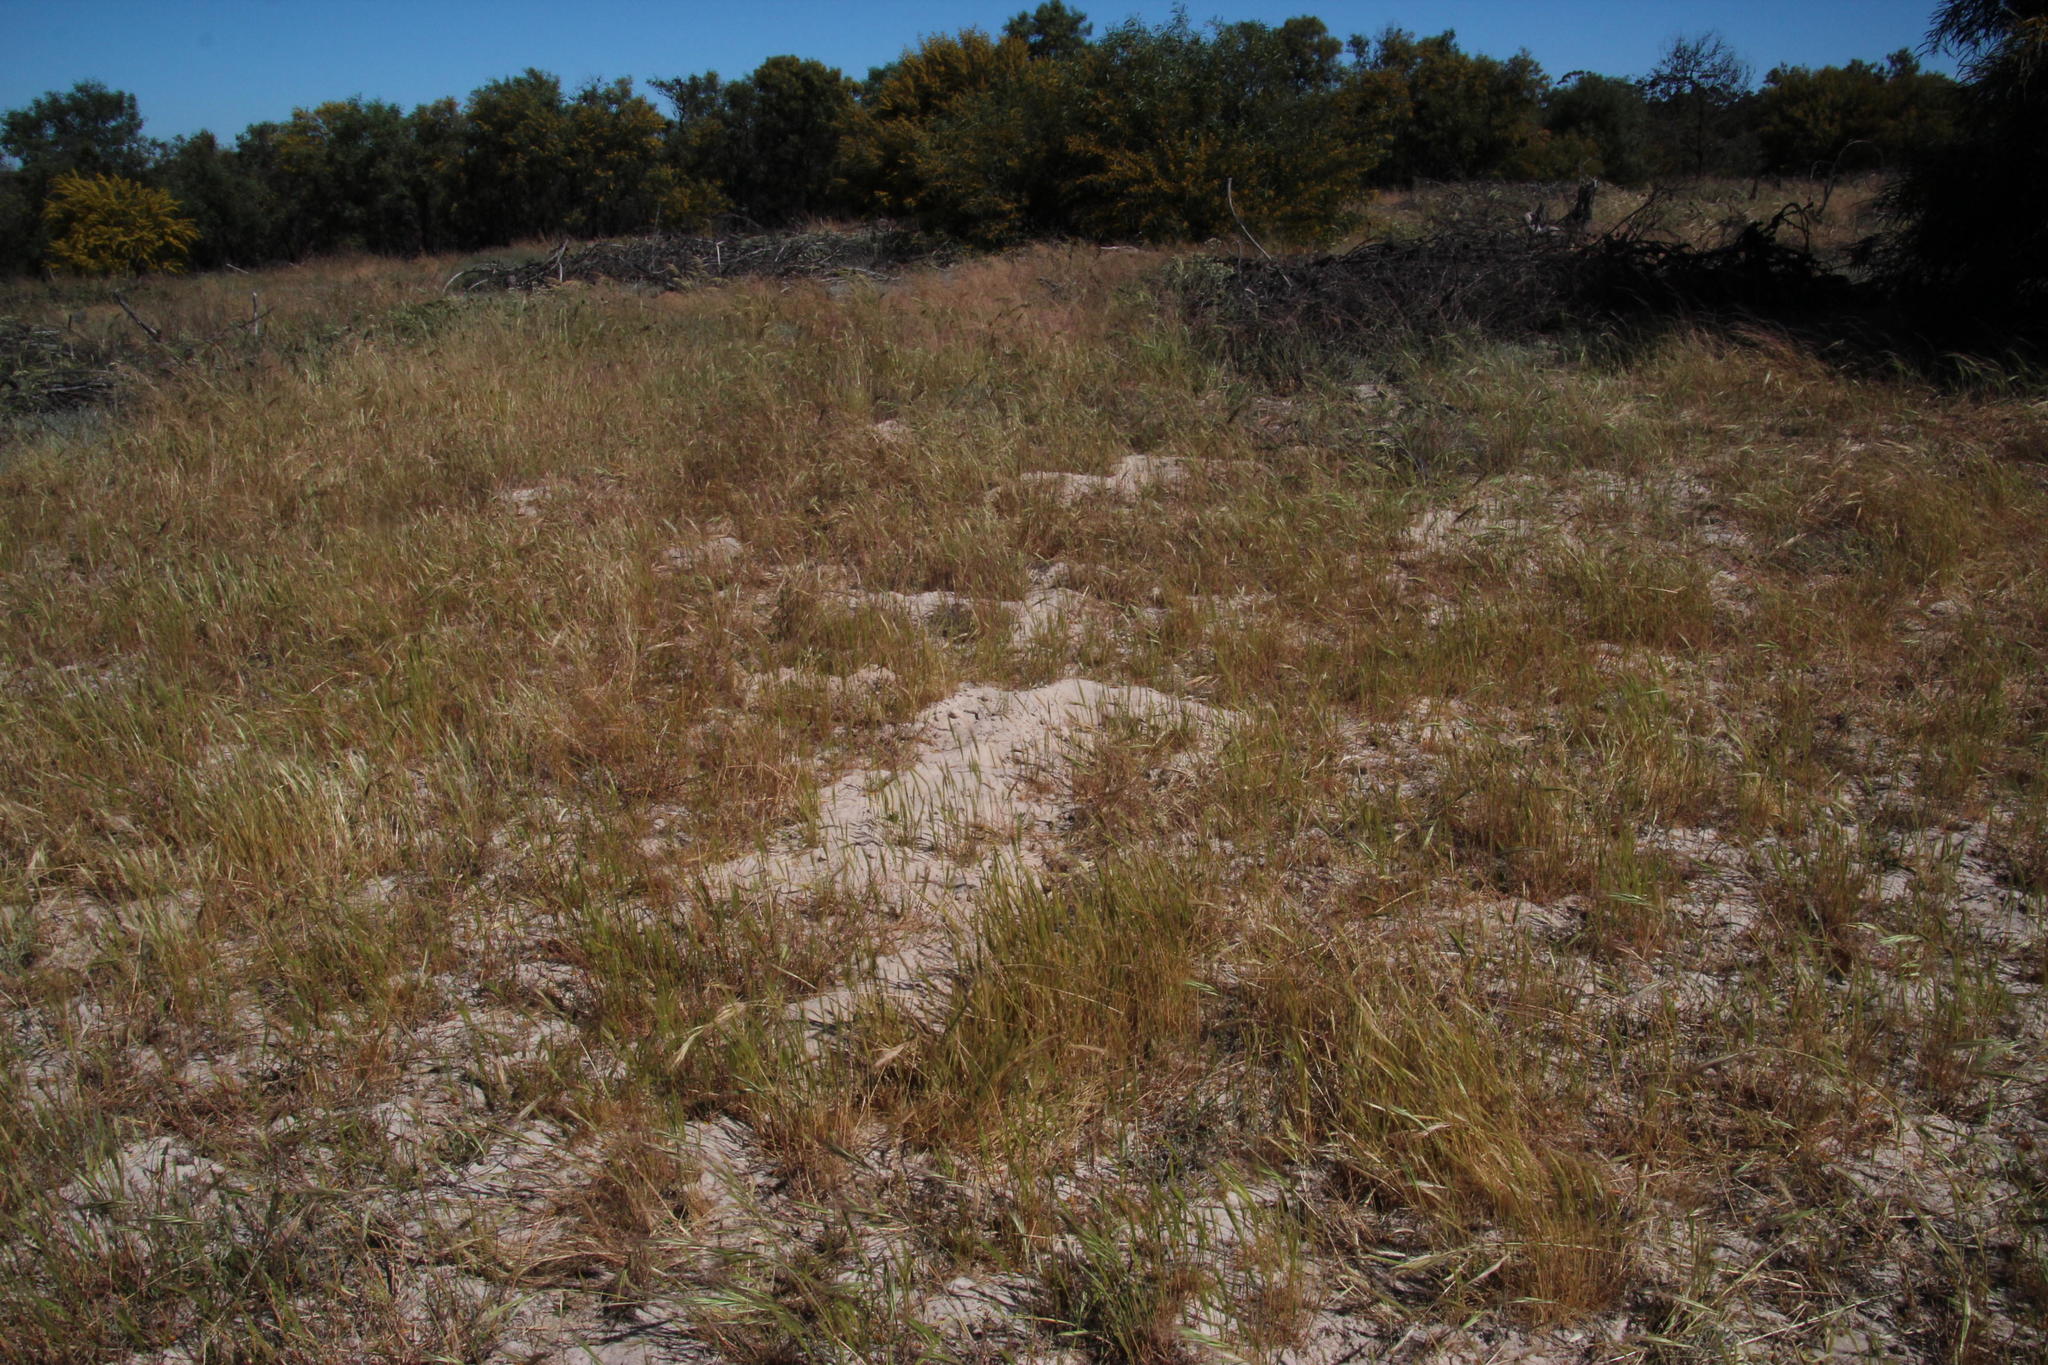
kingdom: Animalia
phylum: Chordata
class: Mammalia
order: Rodentia
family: Muridae
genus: Gerbilliscus
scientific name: Gerbilliscus afer
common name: Cape gerbil
